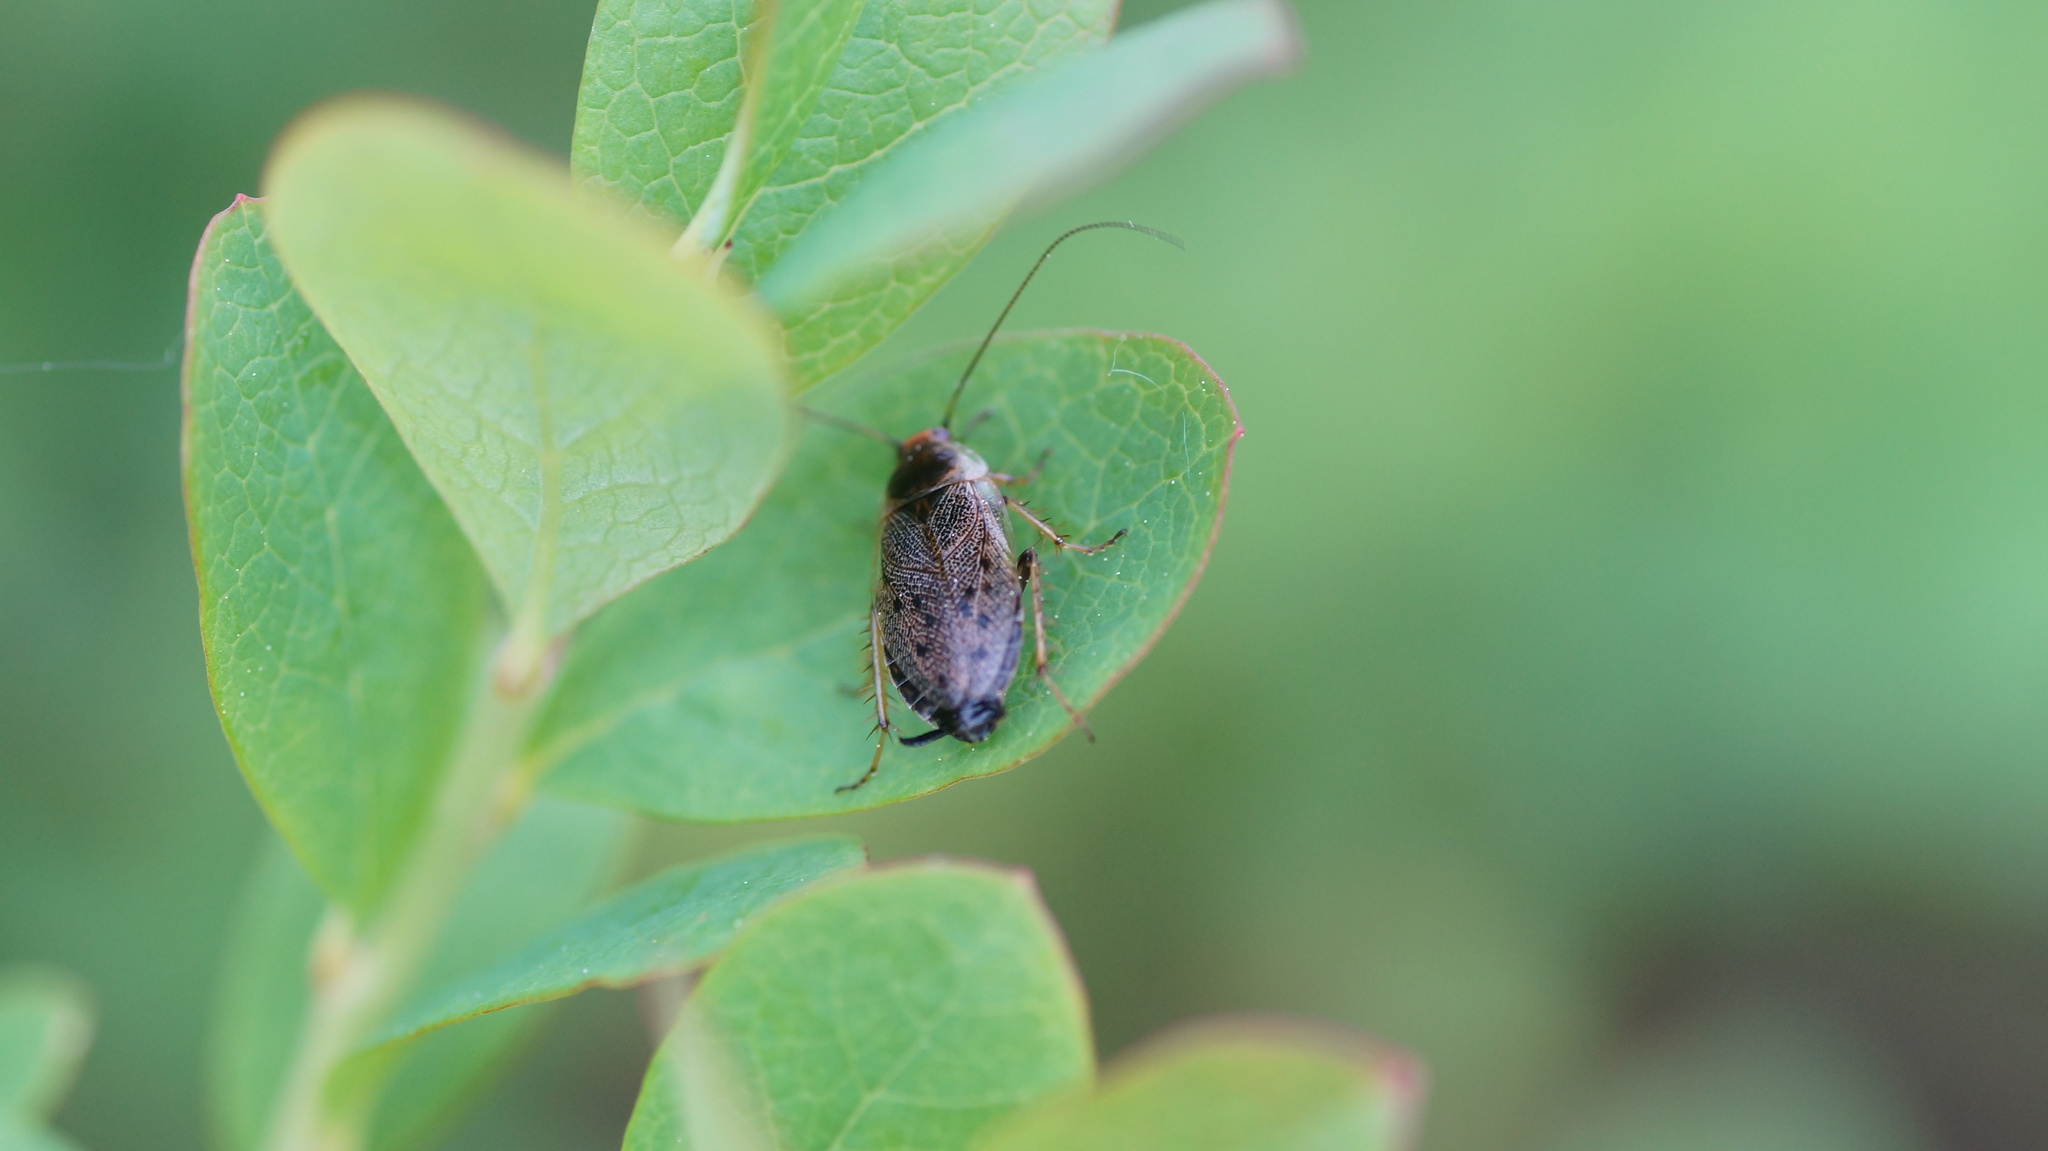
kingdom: Animalia
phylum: Arthropoda
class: Insecta
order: Blattodea
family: Ectobiidae
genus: Ectobius
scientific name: Ectobius lapponicus
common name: Dusky cockroach
